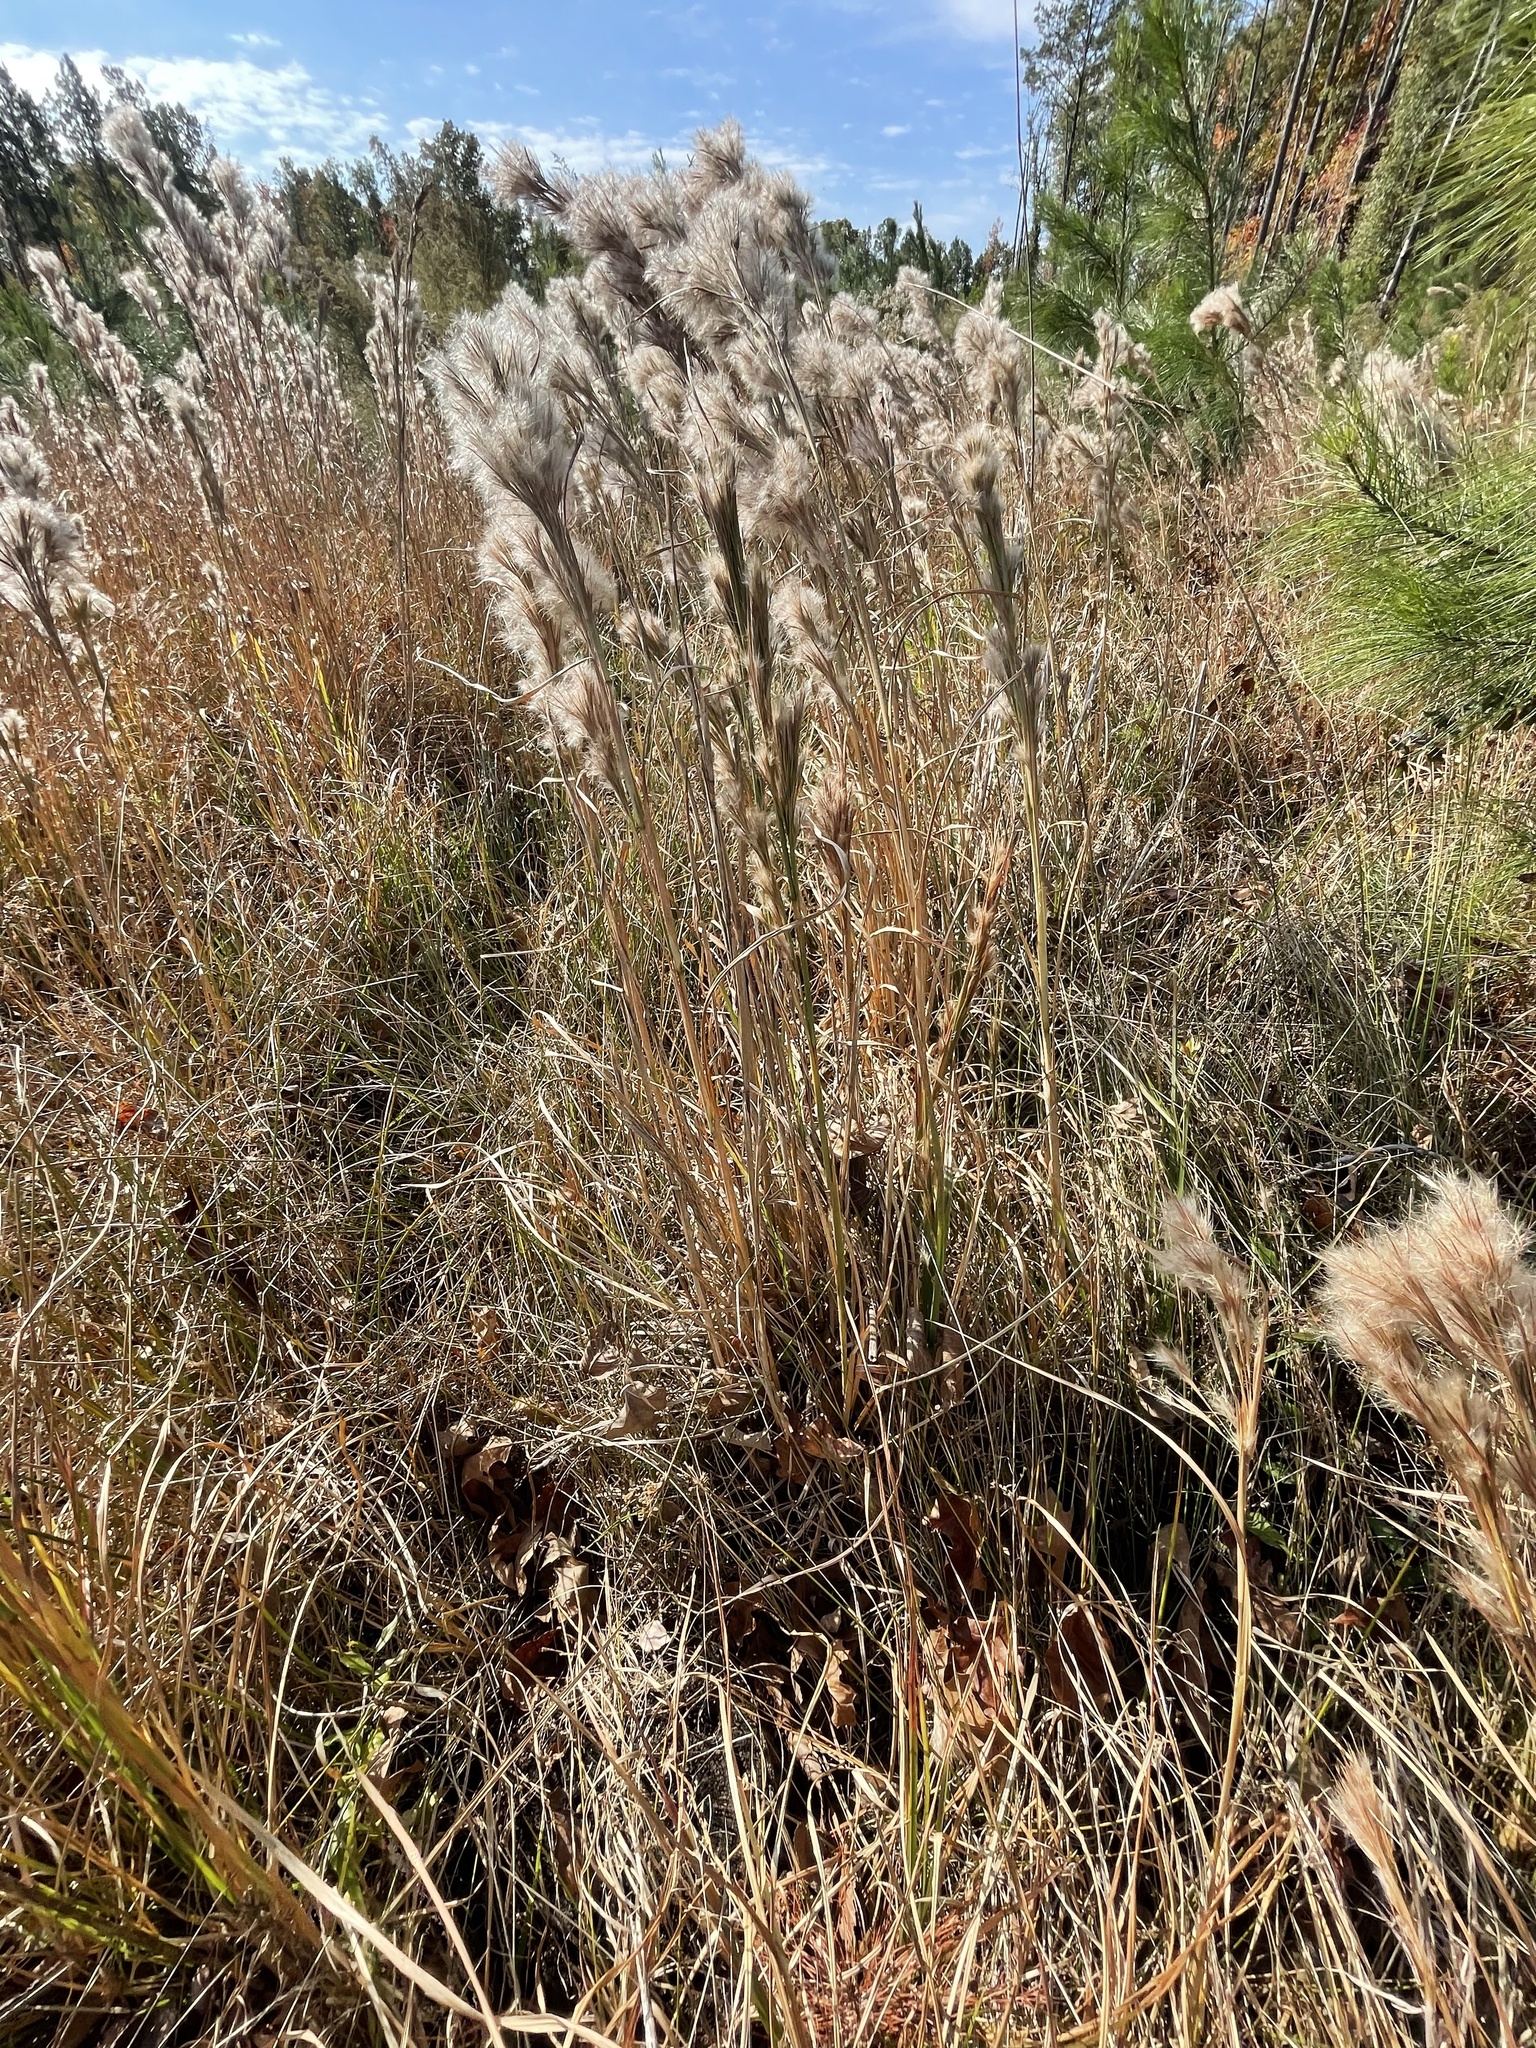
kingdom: Plantae
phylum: Tracheophyta
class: Liliopsida
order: Poales
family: Poaceae
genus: Andropogon
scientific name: Andropogon glomeratus
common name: Bushy beard grass
